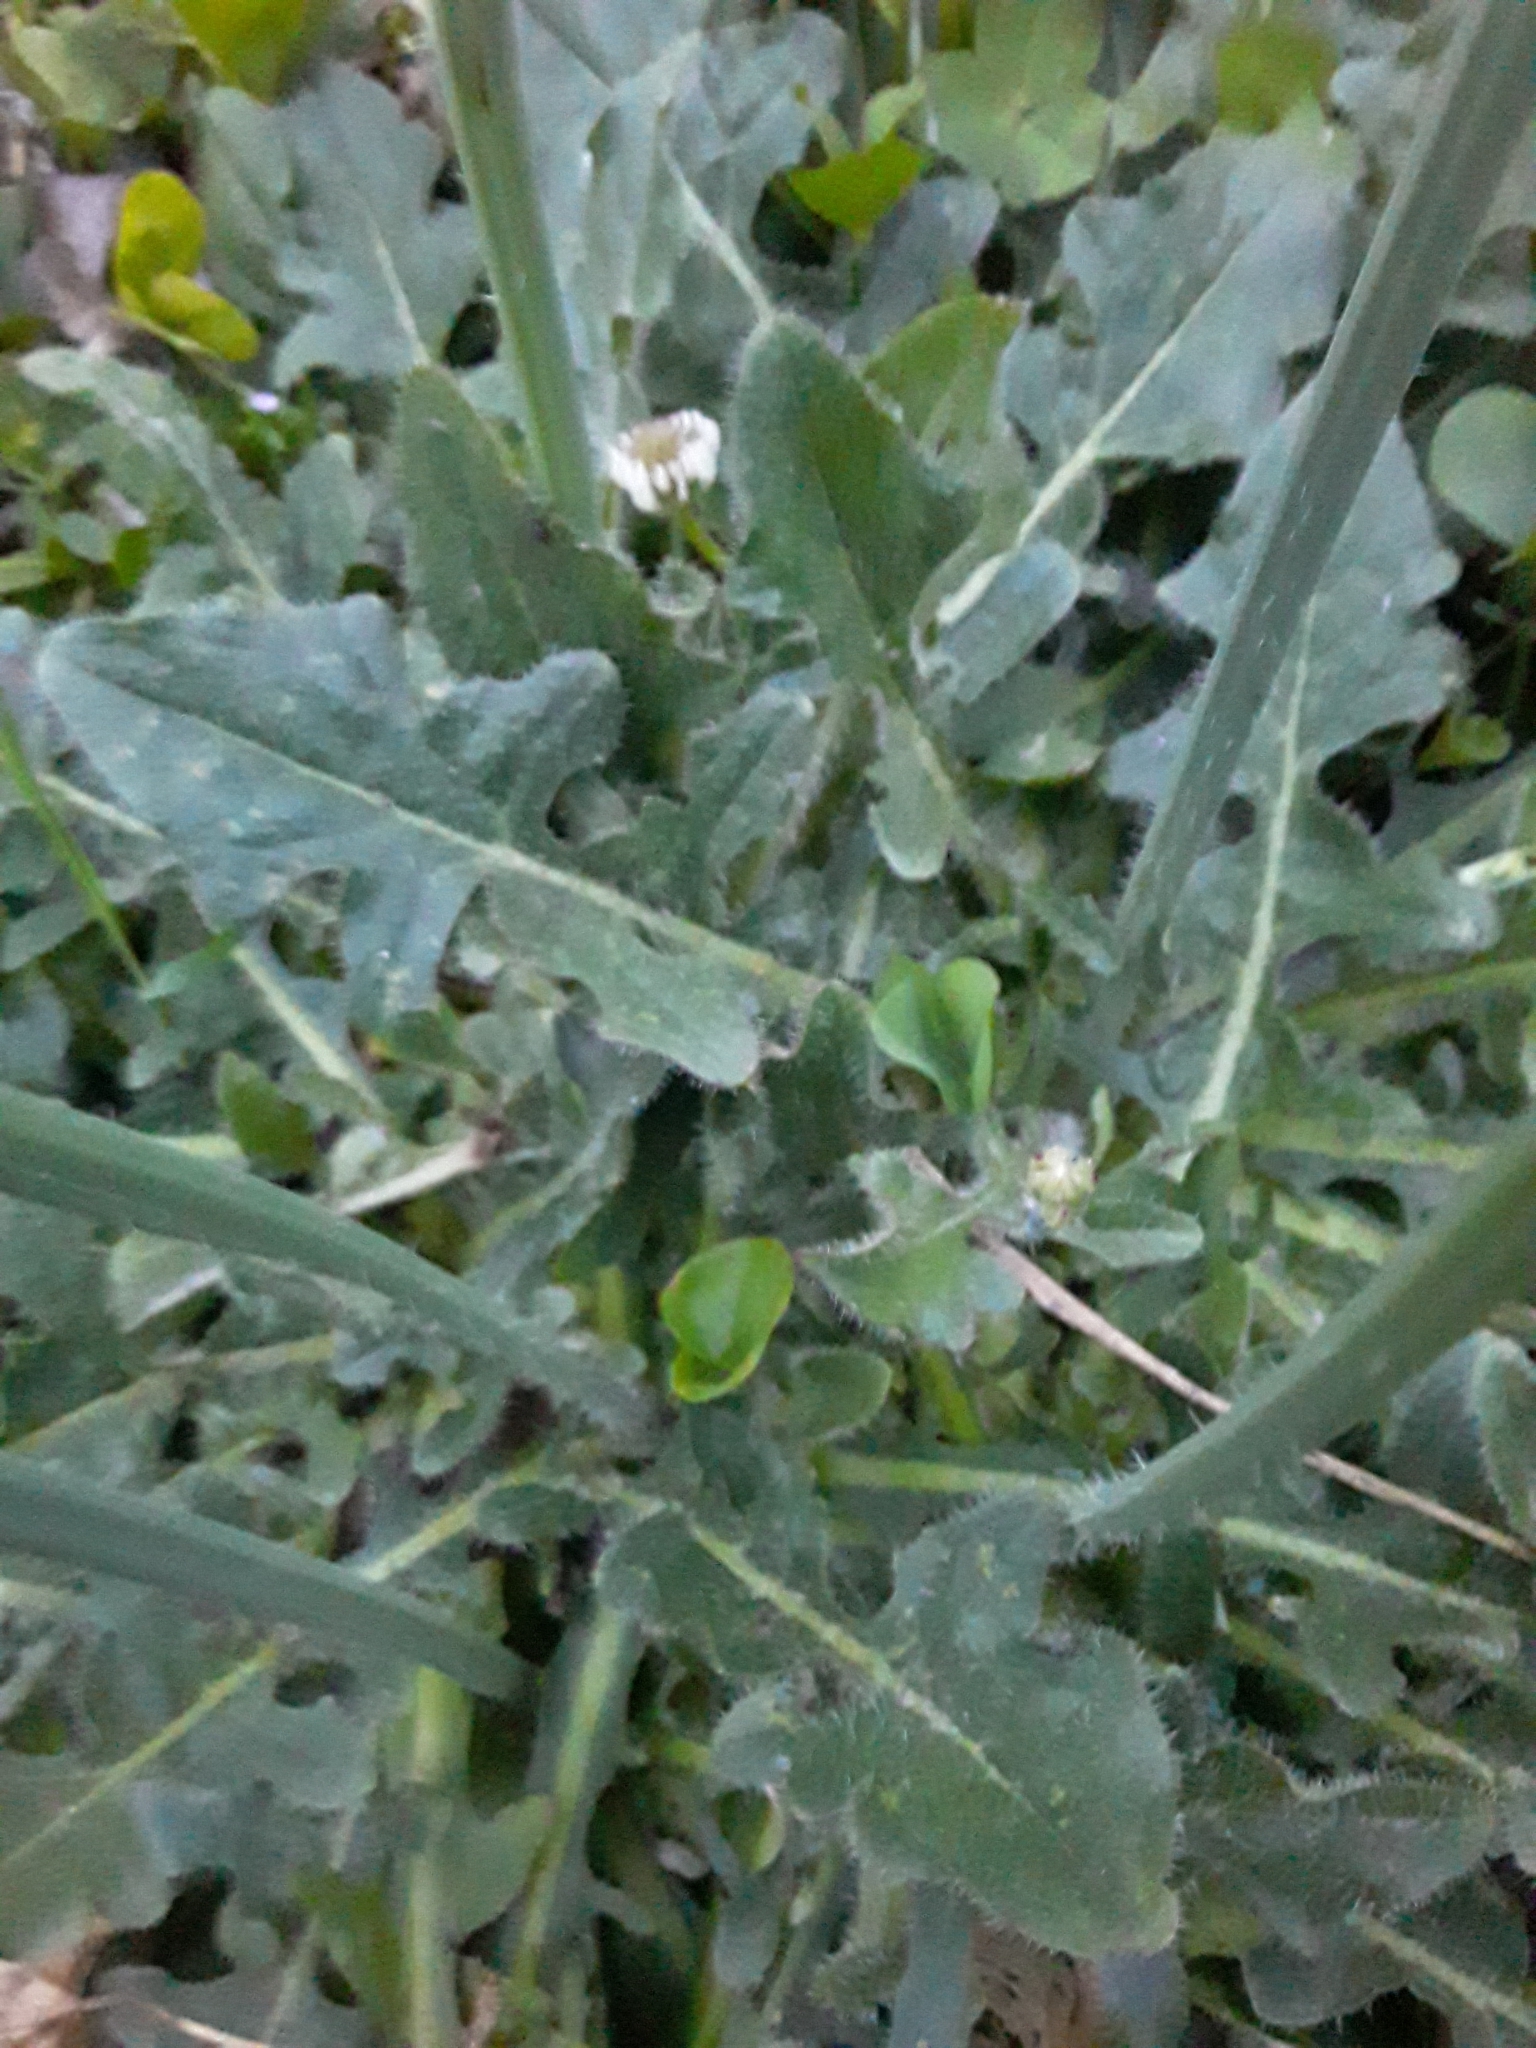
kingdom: Plantae
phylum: Tracheophyta
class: Magnoliopsida
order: Asterales
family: Asteraceae
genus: Hypochaeris
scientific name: Hypochaeris radicata
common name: Flatweed
